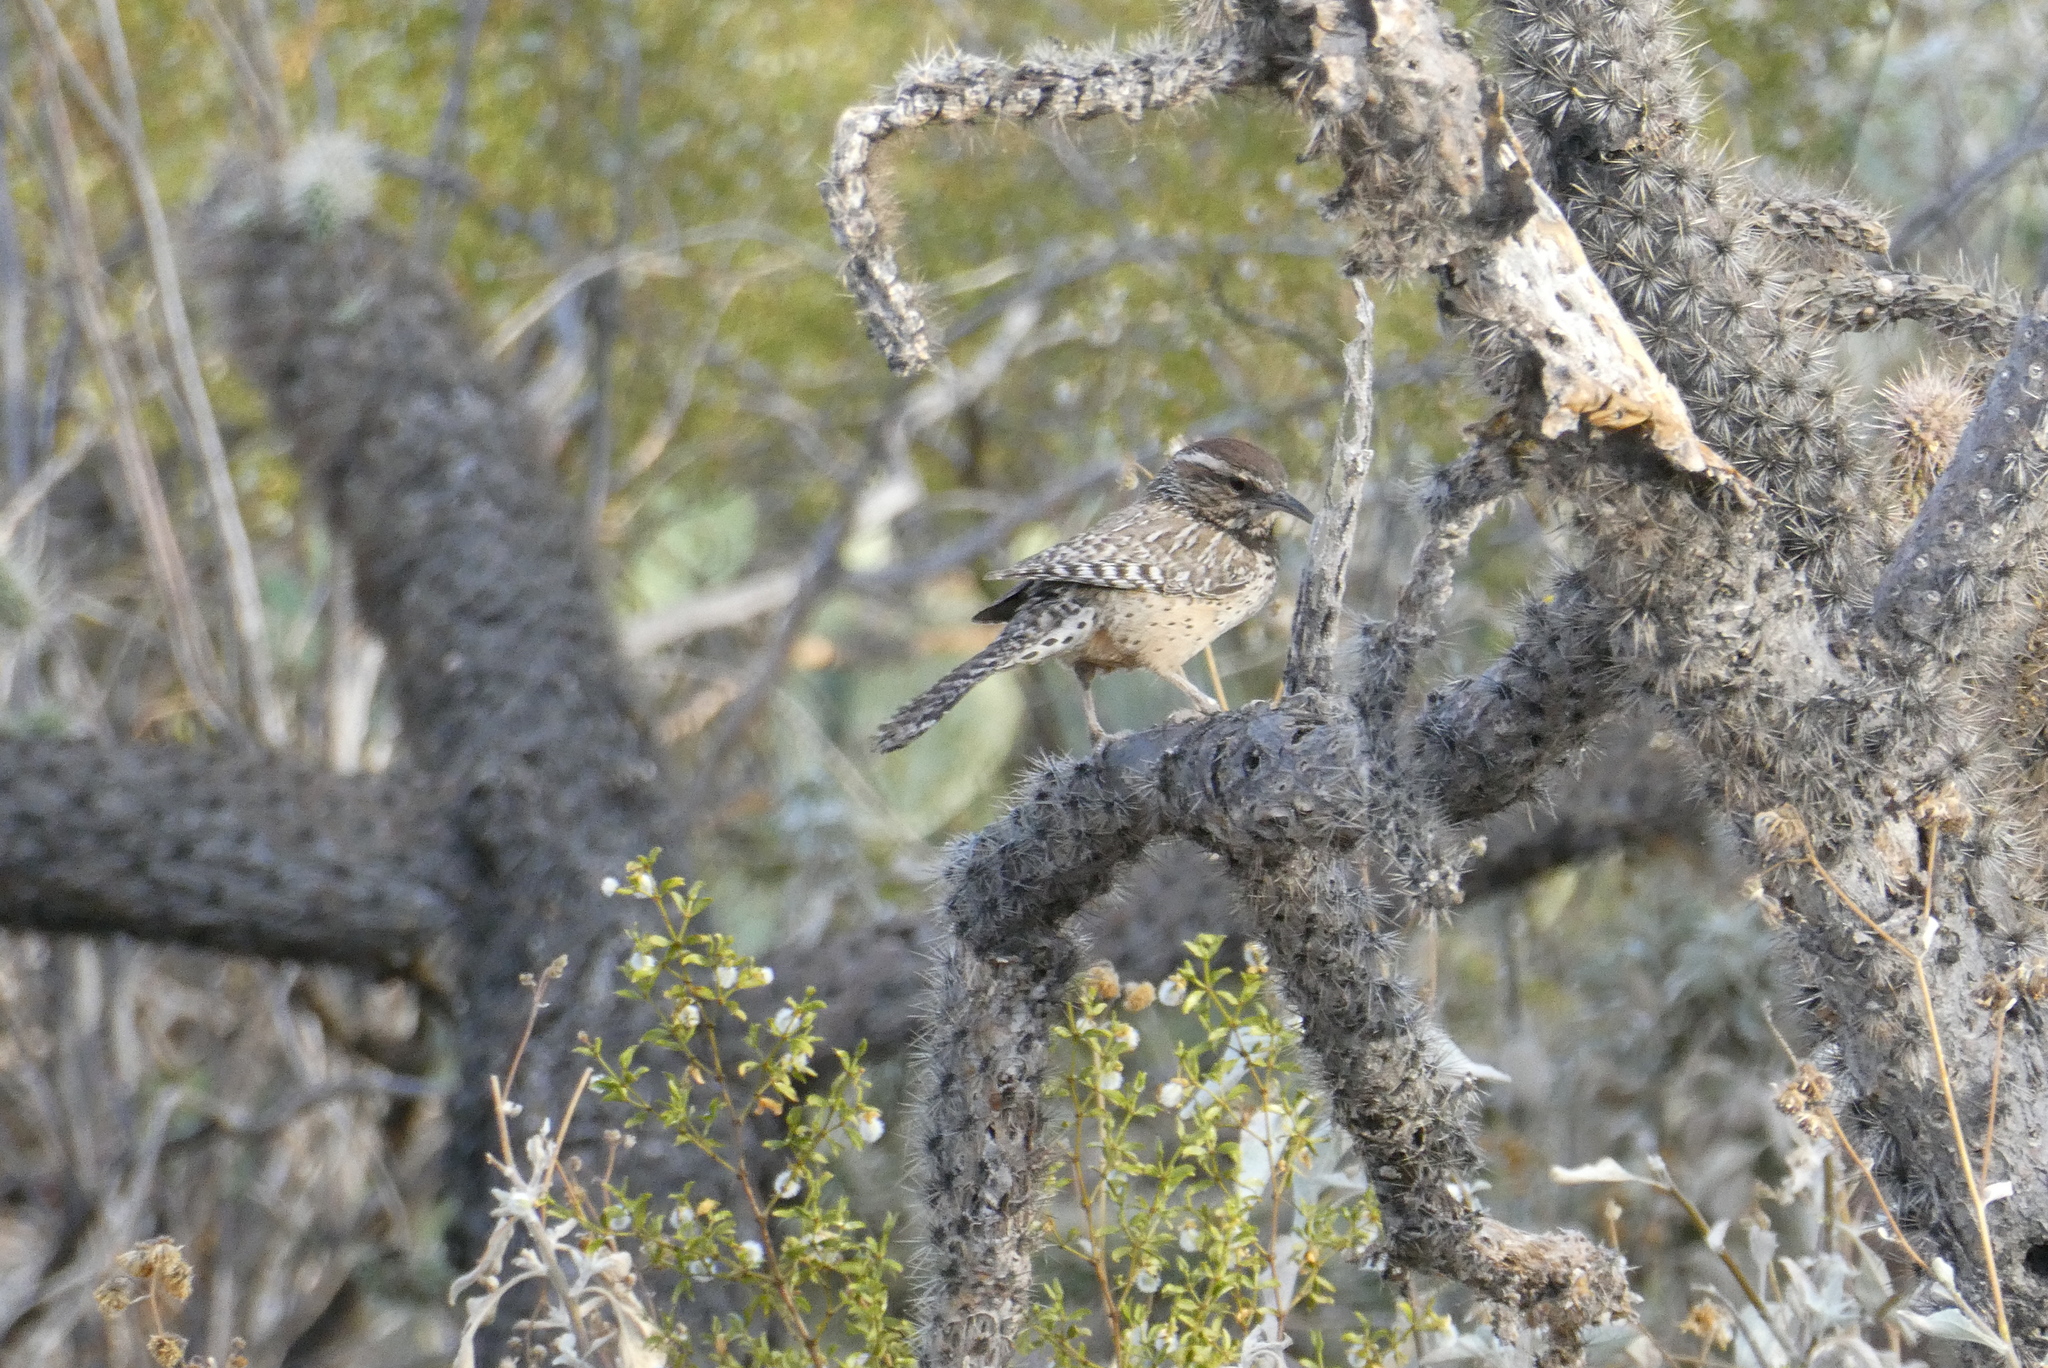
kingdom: Animalia
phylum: Chordata
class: Aves
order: Passeriformes
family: Troglodytidae
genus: Campylorhynchus
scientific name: Campylorhynchus brunneicapillus
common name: Cactus wren
